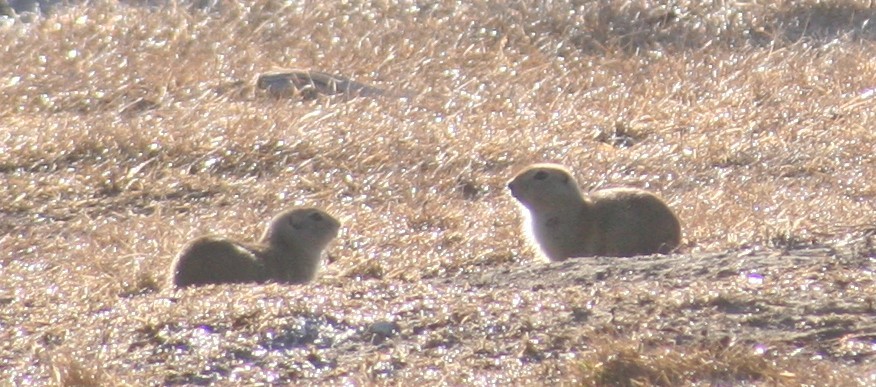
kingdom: Animalia
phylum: Chordata
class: Mammalia
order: Rodentia
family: Sciuridae
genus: Urocitellus
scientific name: Urocitellus richardsonii
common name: Richardson's ground squirrel
